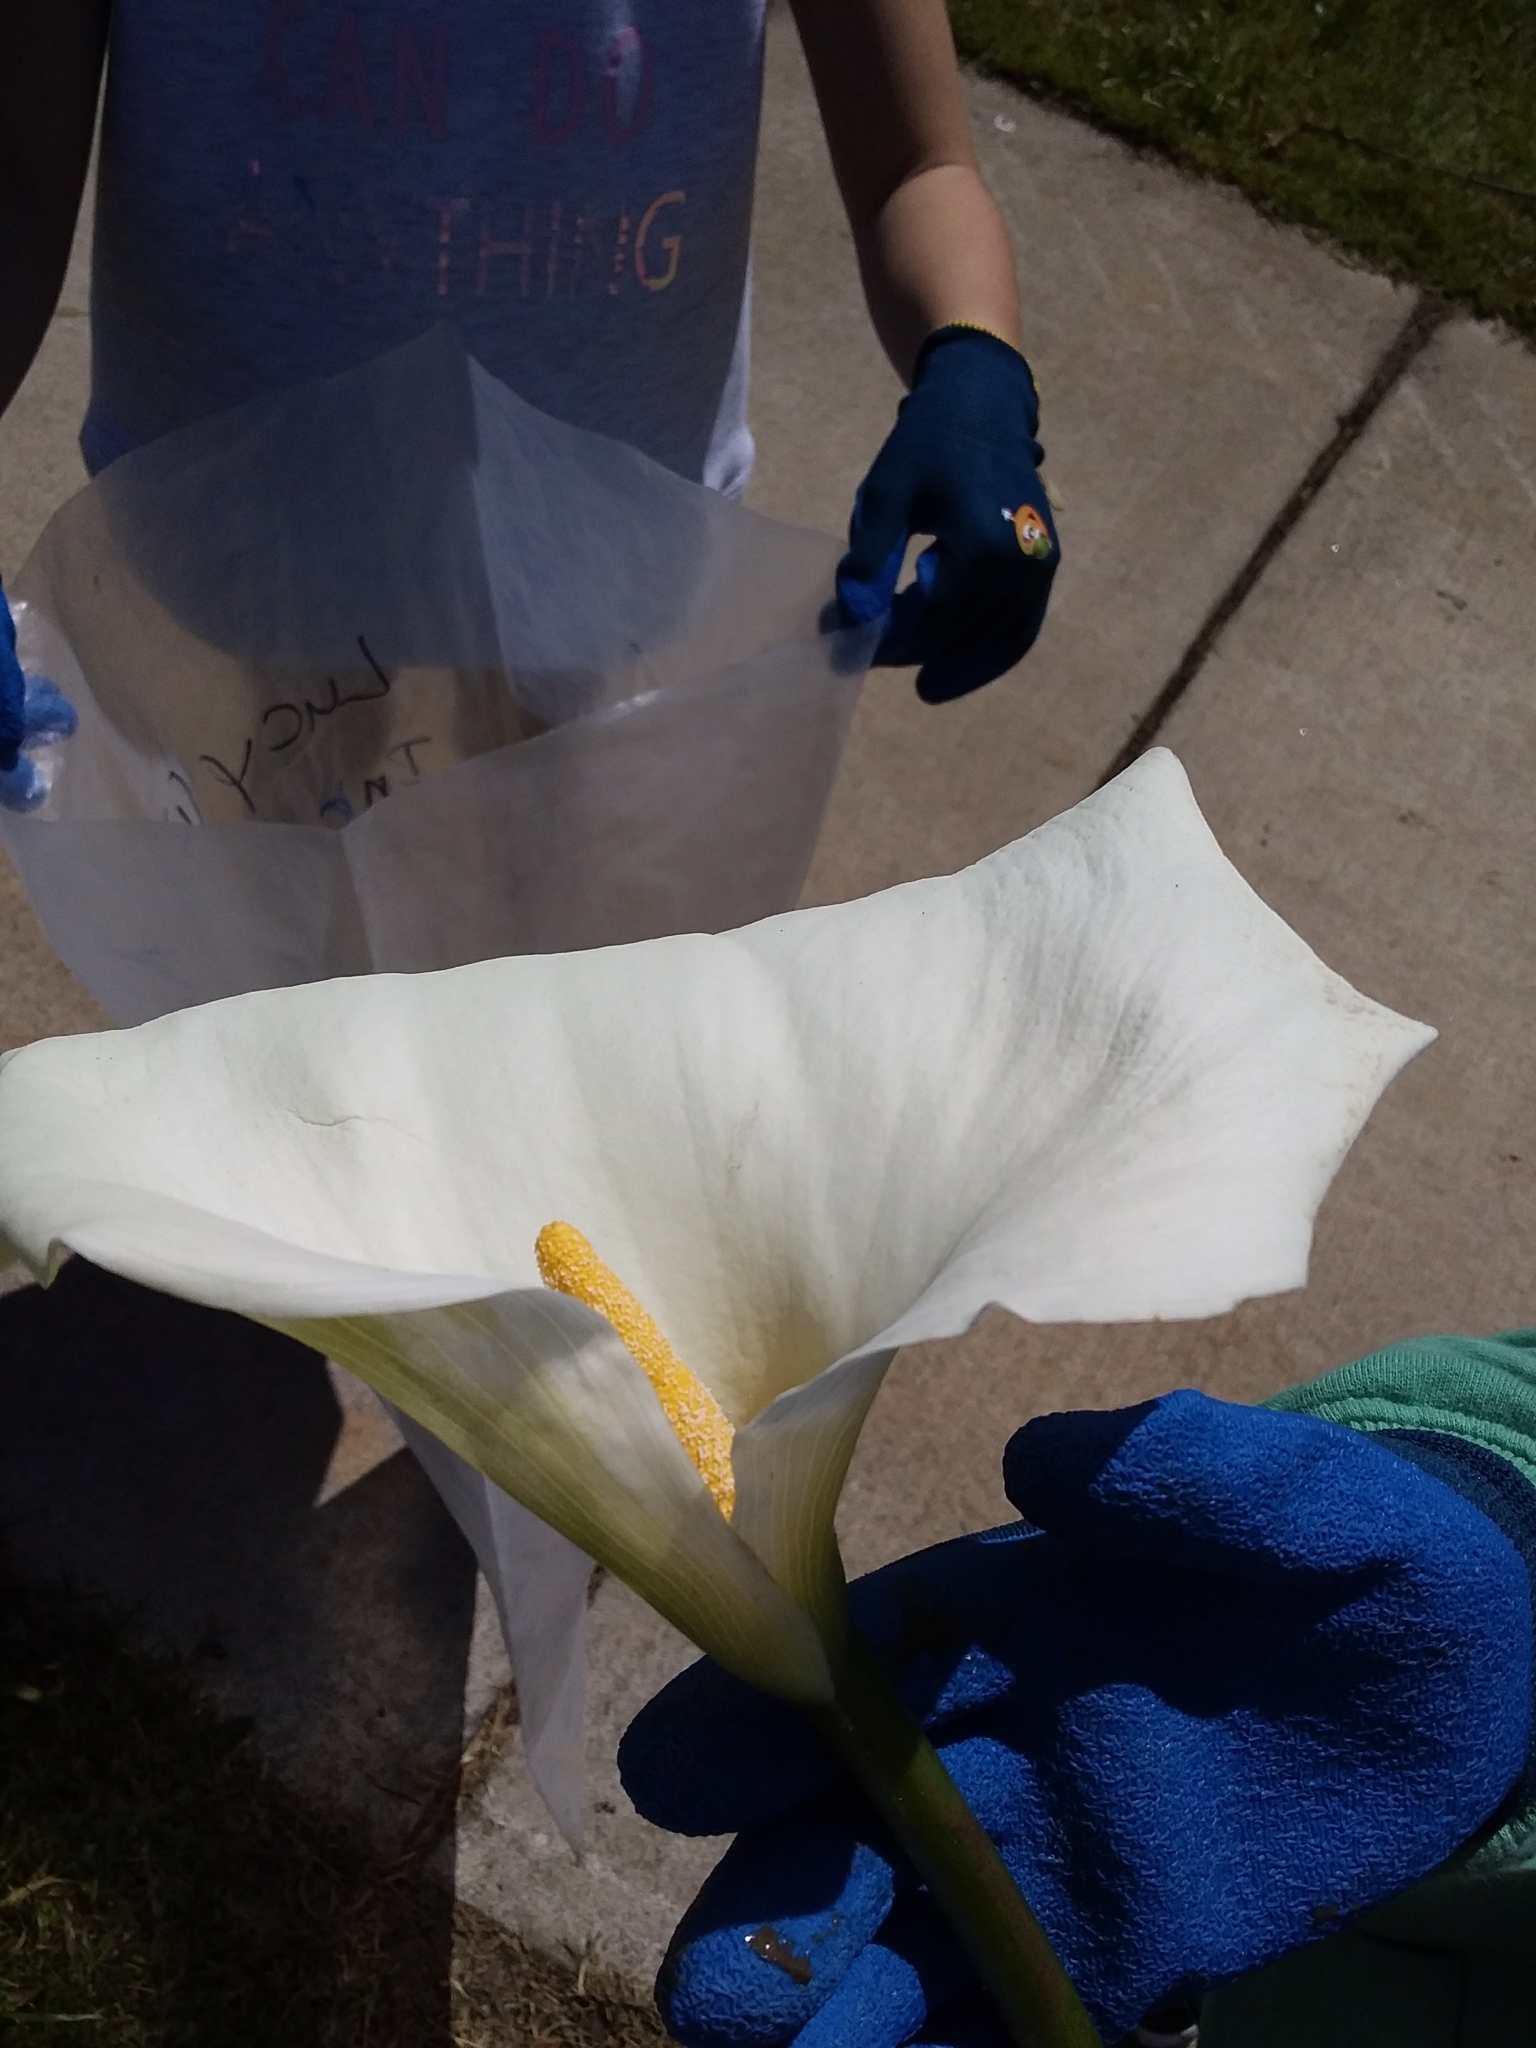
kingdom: Plantae
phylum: Tracheophyta
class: Liliopsida
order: Alismatales
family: Araceae
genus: Zantedeschia
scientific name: Zantedeschia aethiopica
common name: Altar-lily
